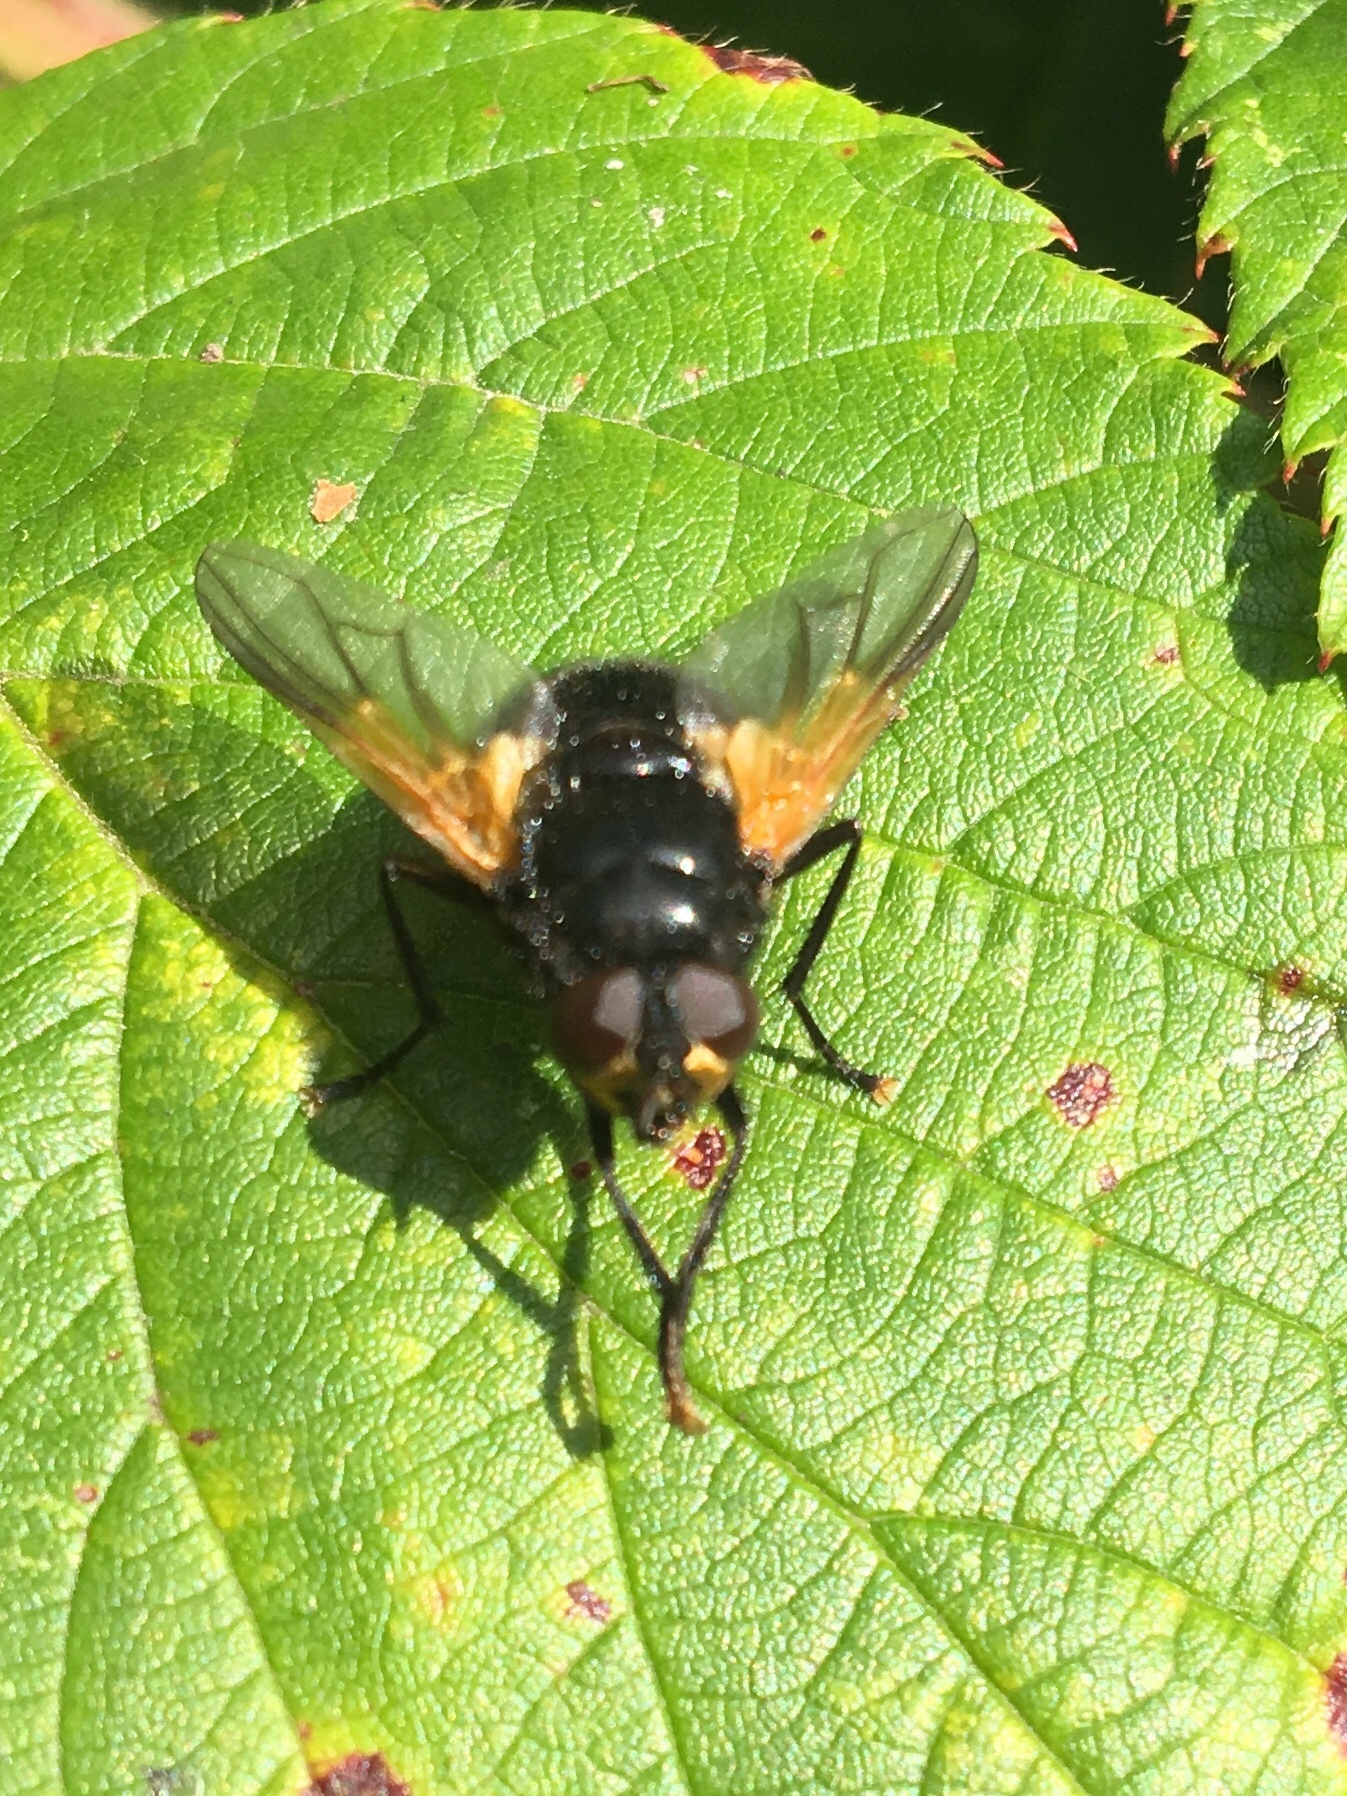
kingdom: Animalia
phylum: Arthropoda
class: Insecta
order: Diptera
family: Muscidae
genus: Mesembrina
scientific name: Mesembrina meridiana
